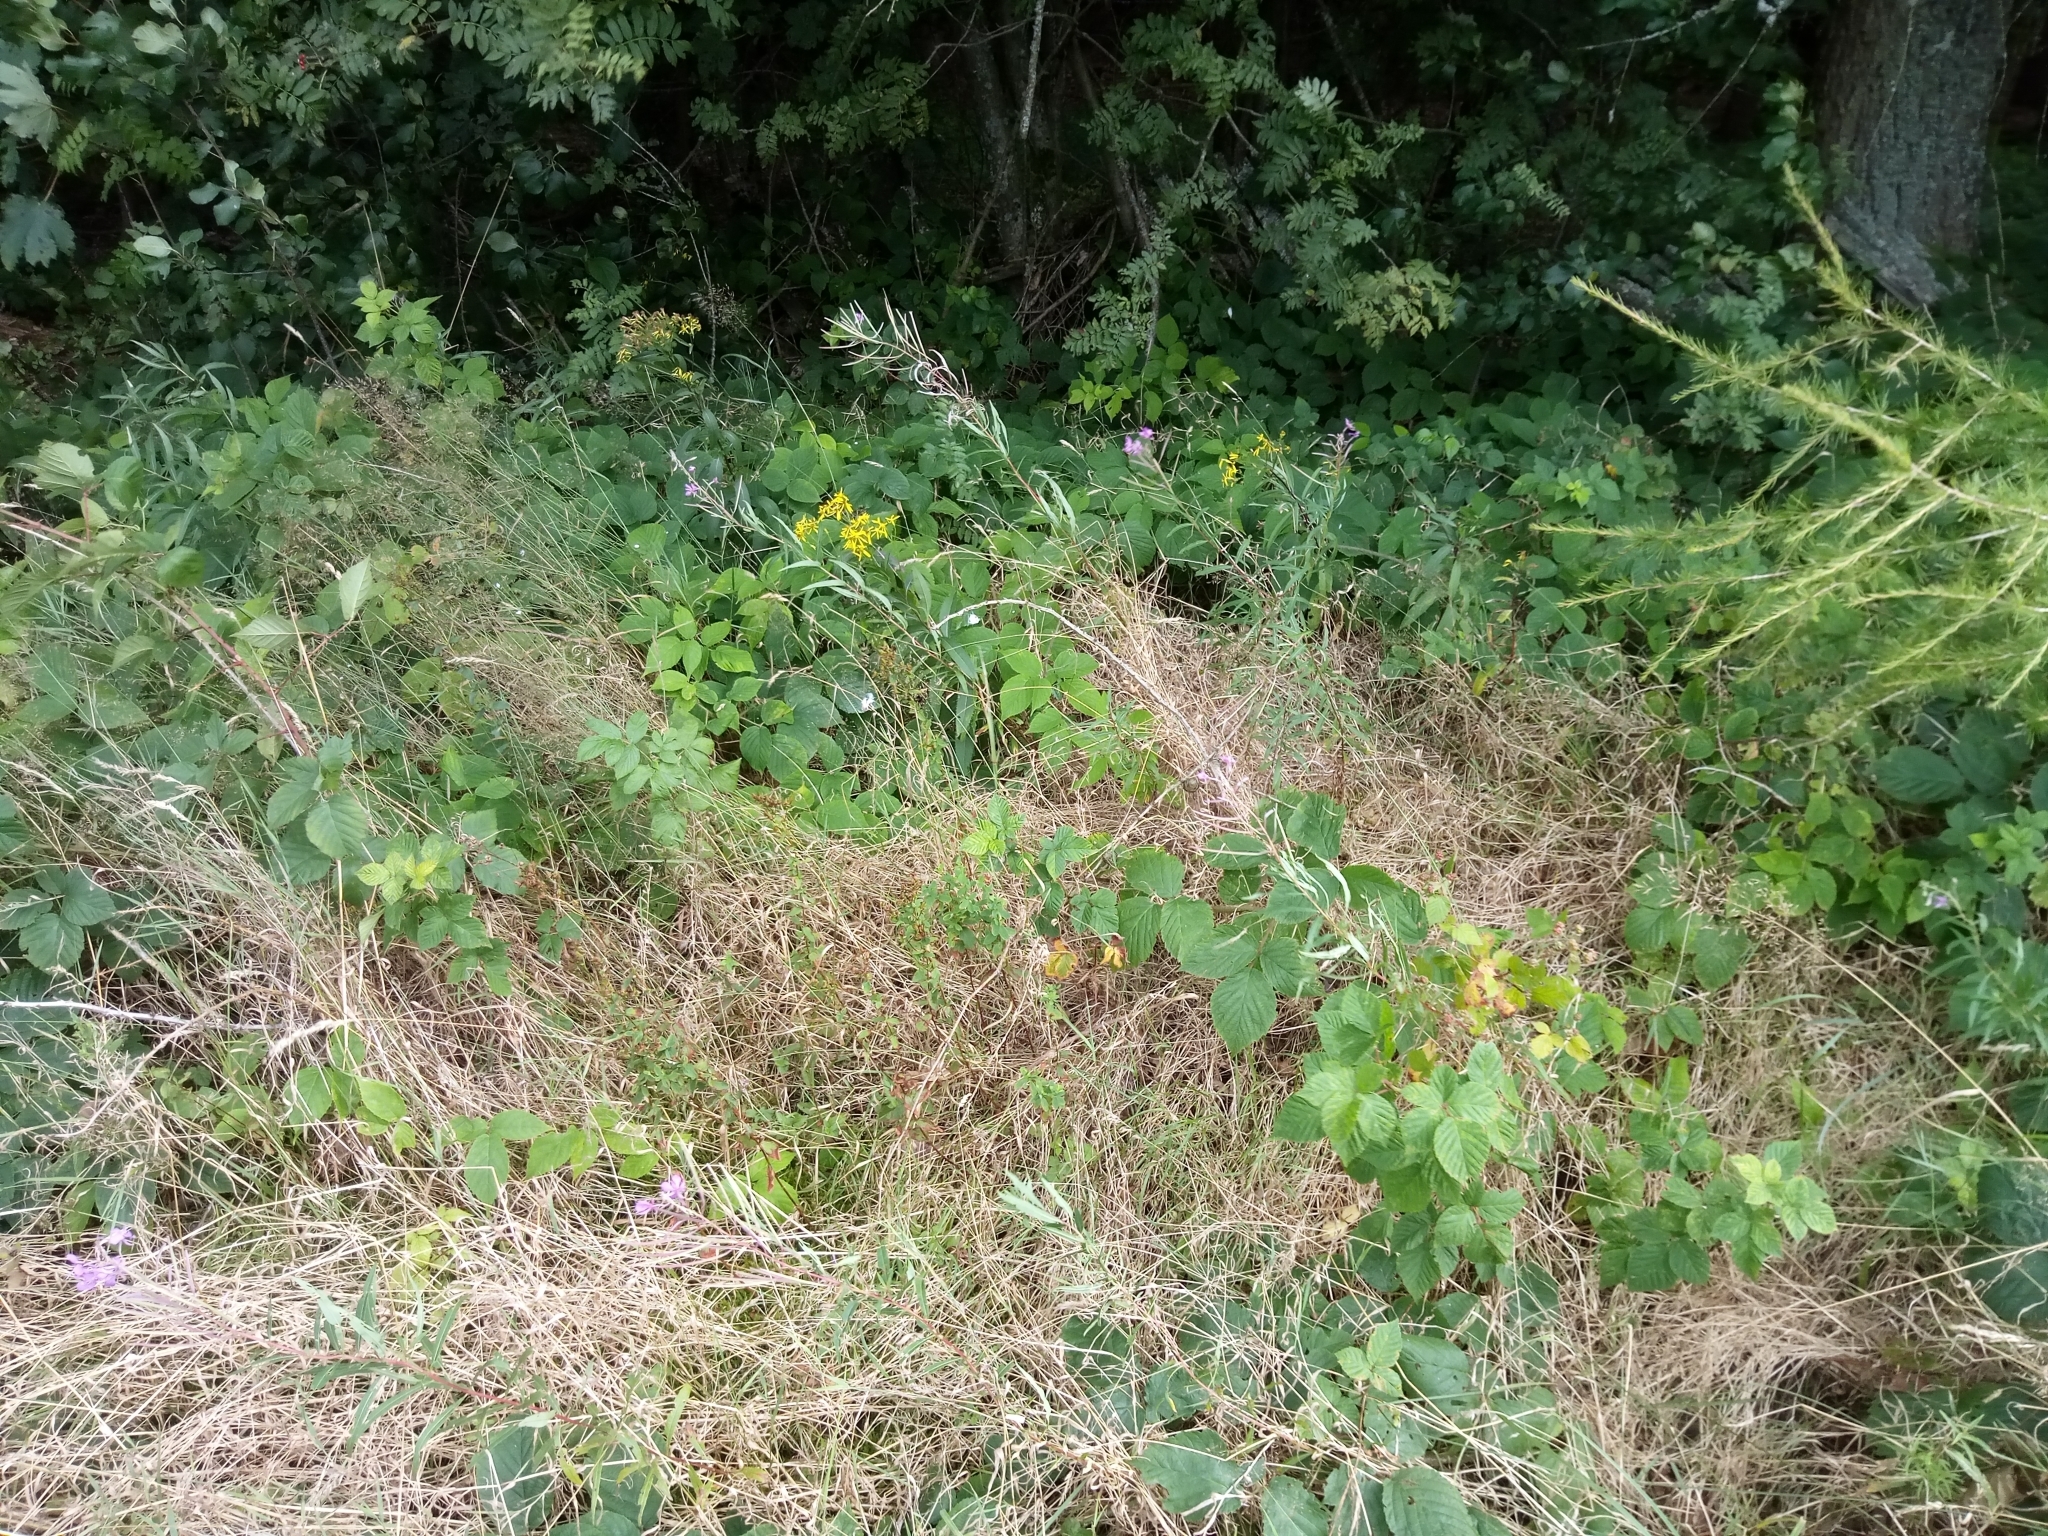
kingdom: Plantae
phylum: Tracheophyta
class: Magnoliopsida
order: Myrtales
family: Onagraceae
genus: Chamaenerion
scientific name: Chamaenerion angustifolium
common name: Fireweed
